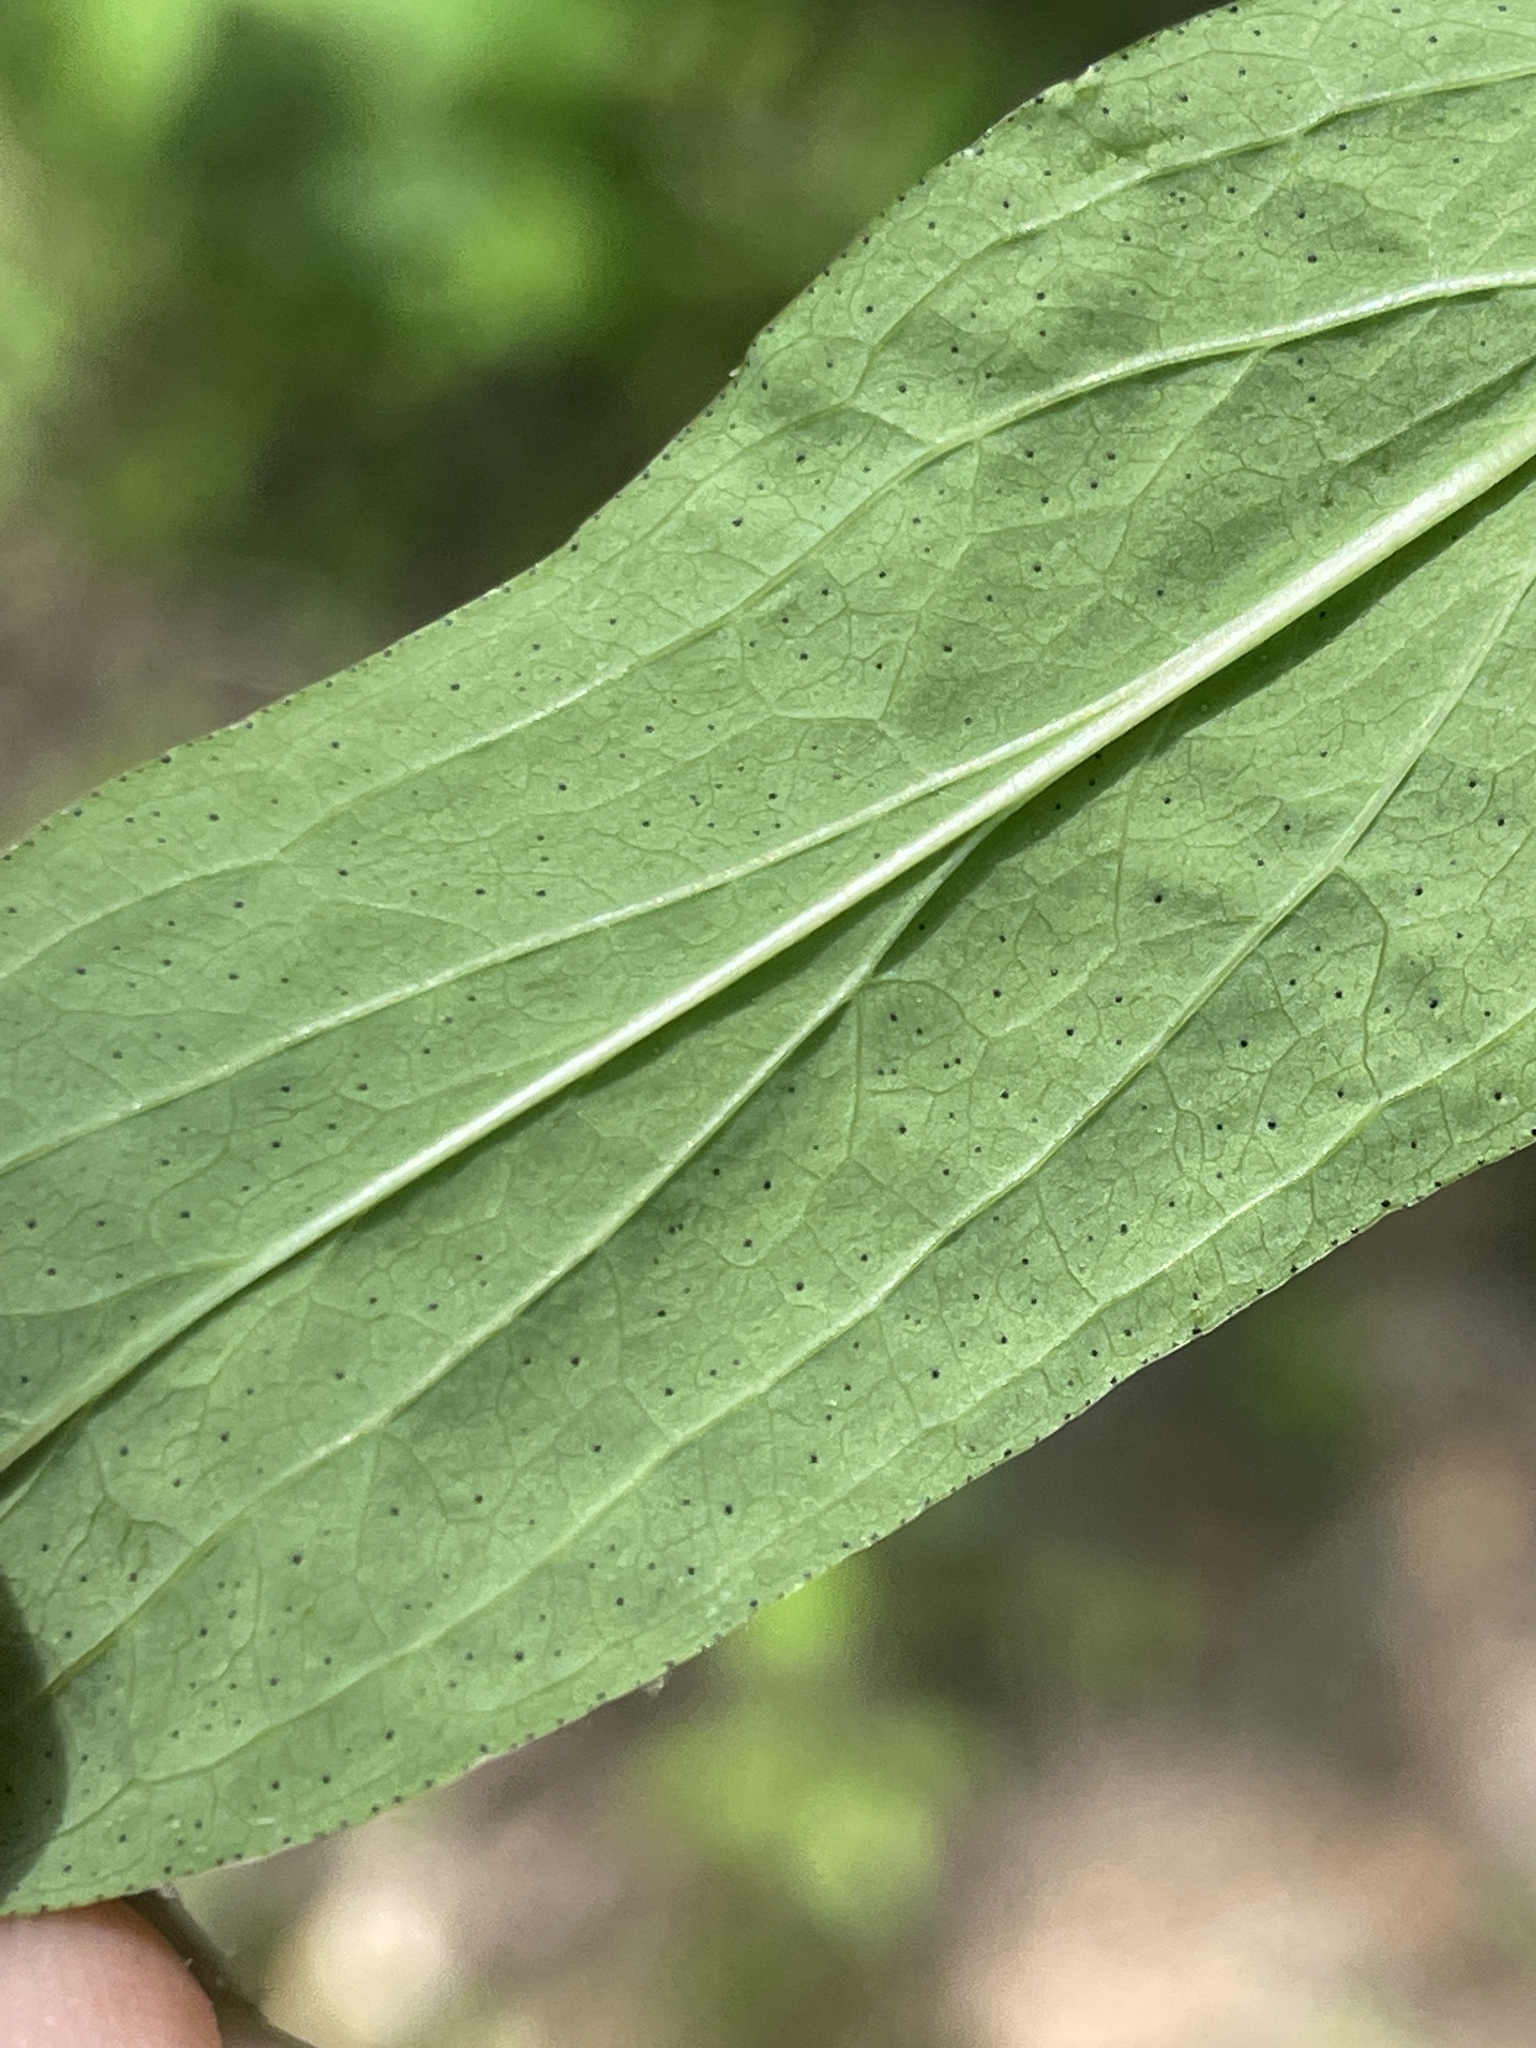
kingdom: Plantae
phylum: Tracheophyta
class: Magnoliopsida
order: Malpighiales
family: Hypericaceae
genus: Hypericum
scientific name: Hypericum punctatum
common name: Spotted st. john's-wort
